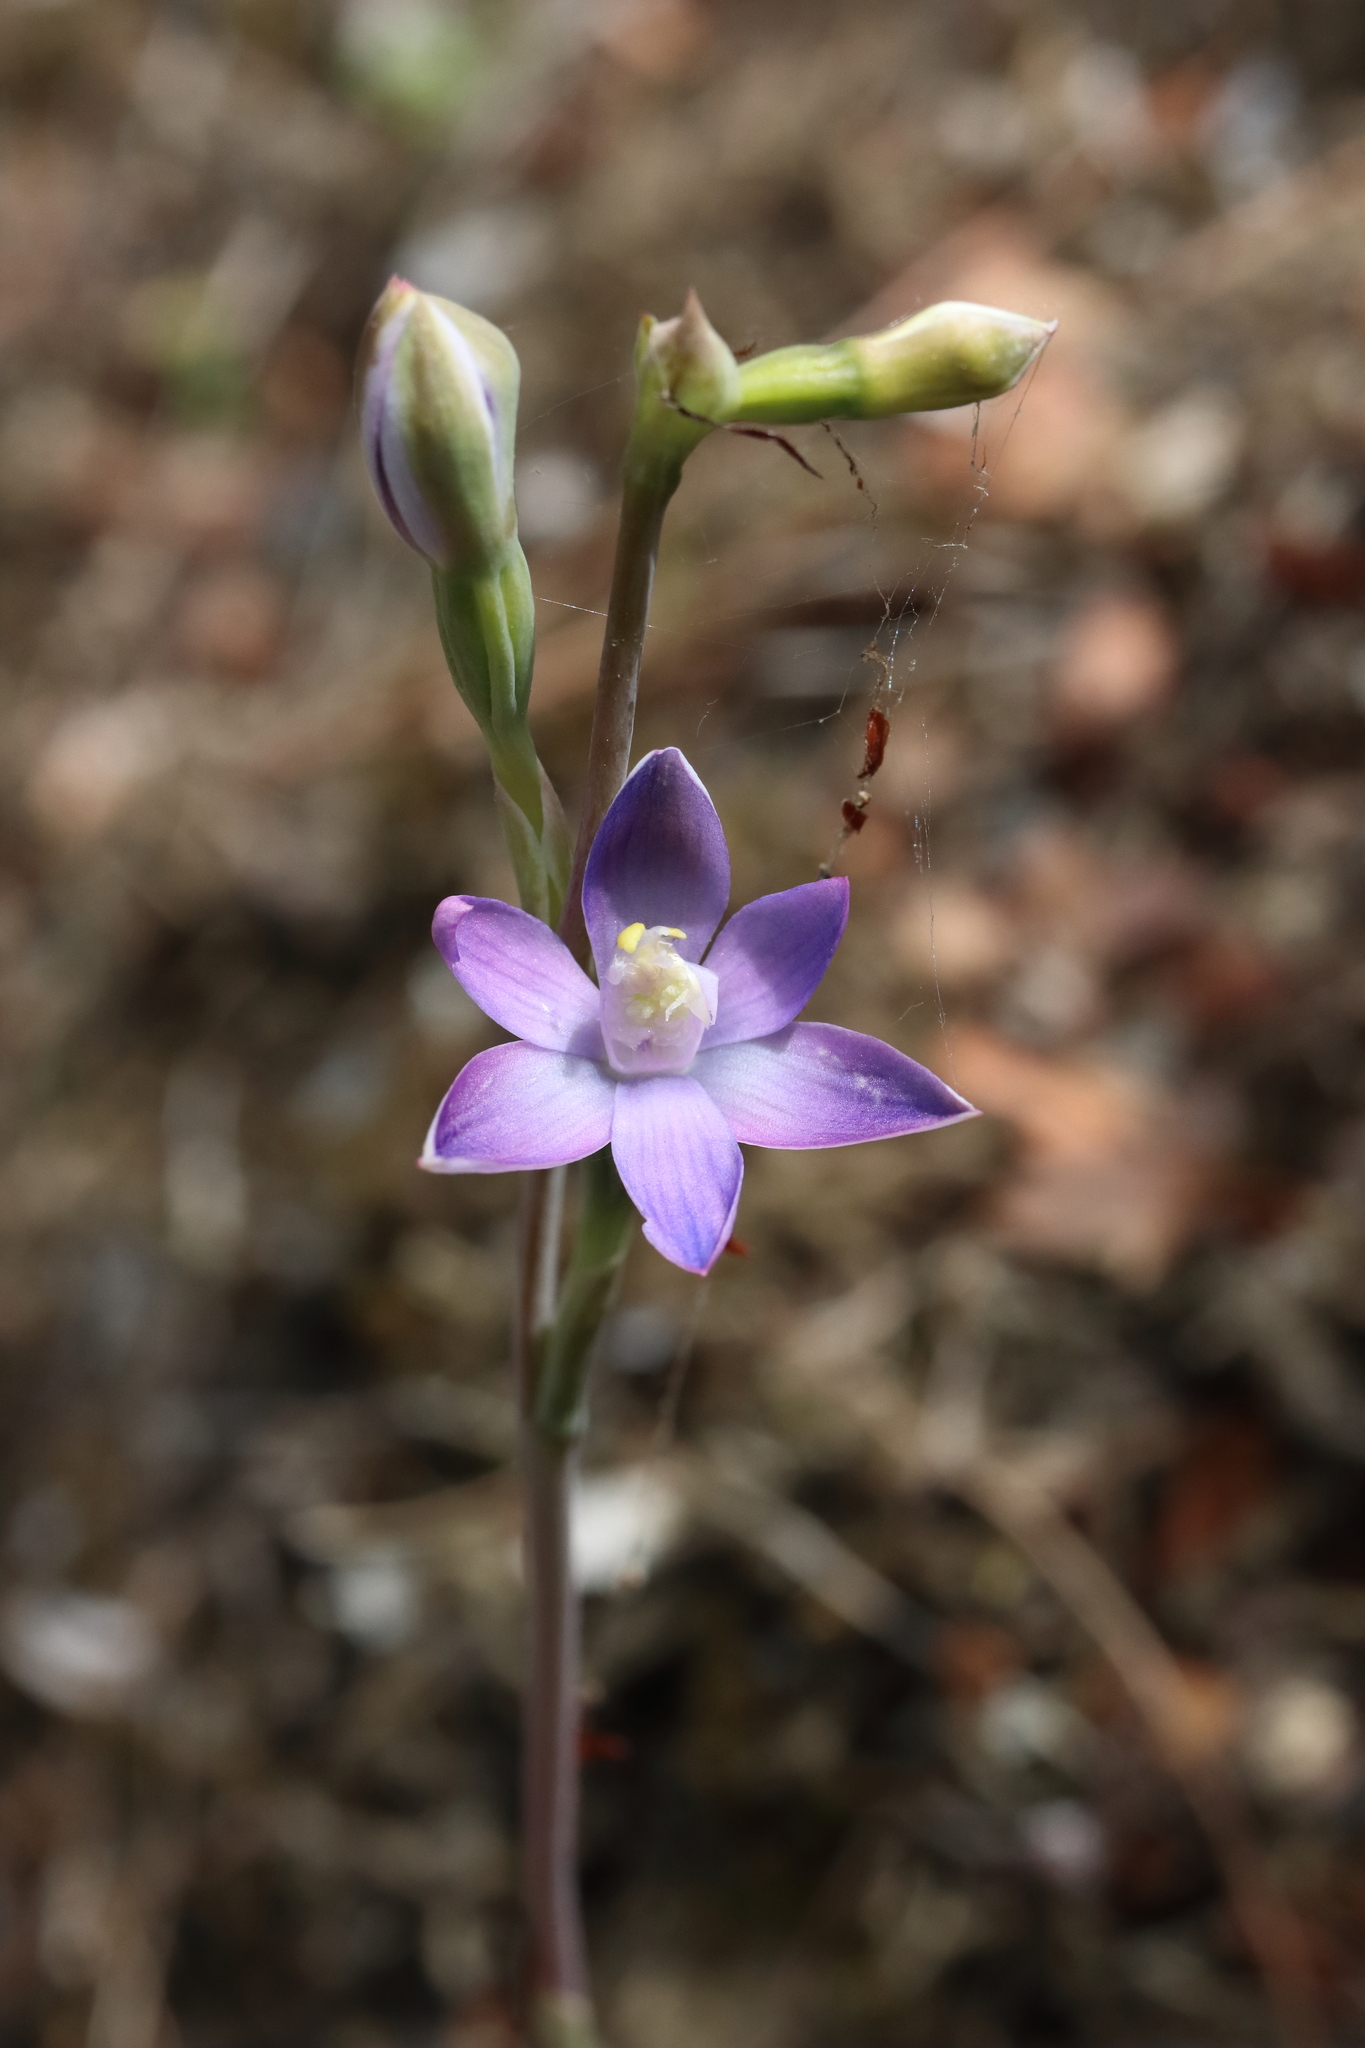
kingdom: Plantae
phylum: Tracheophyta
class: Liliopsida
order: Asparagales
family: Orchidaceae
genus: Thelymitra
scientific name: Thelymitra pauciflora
